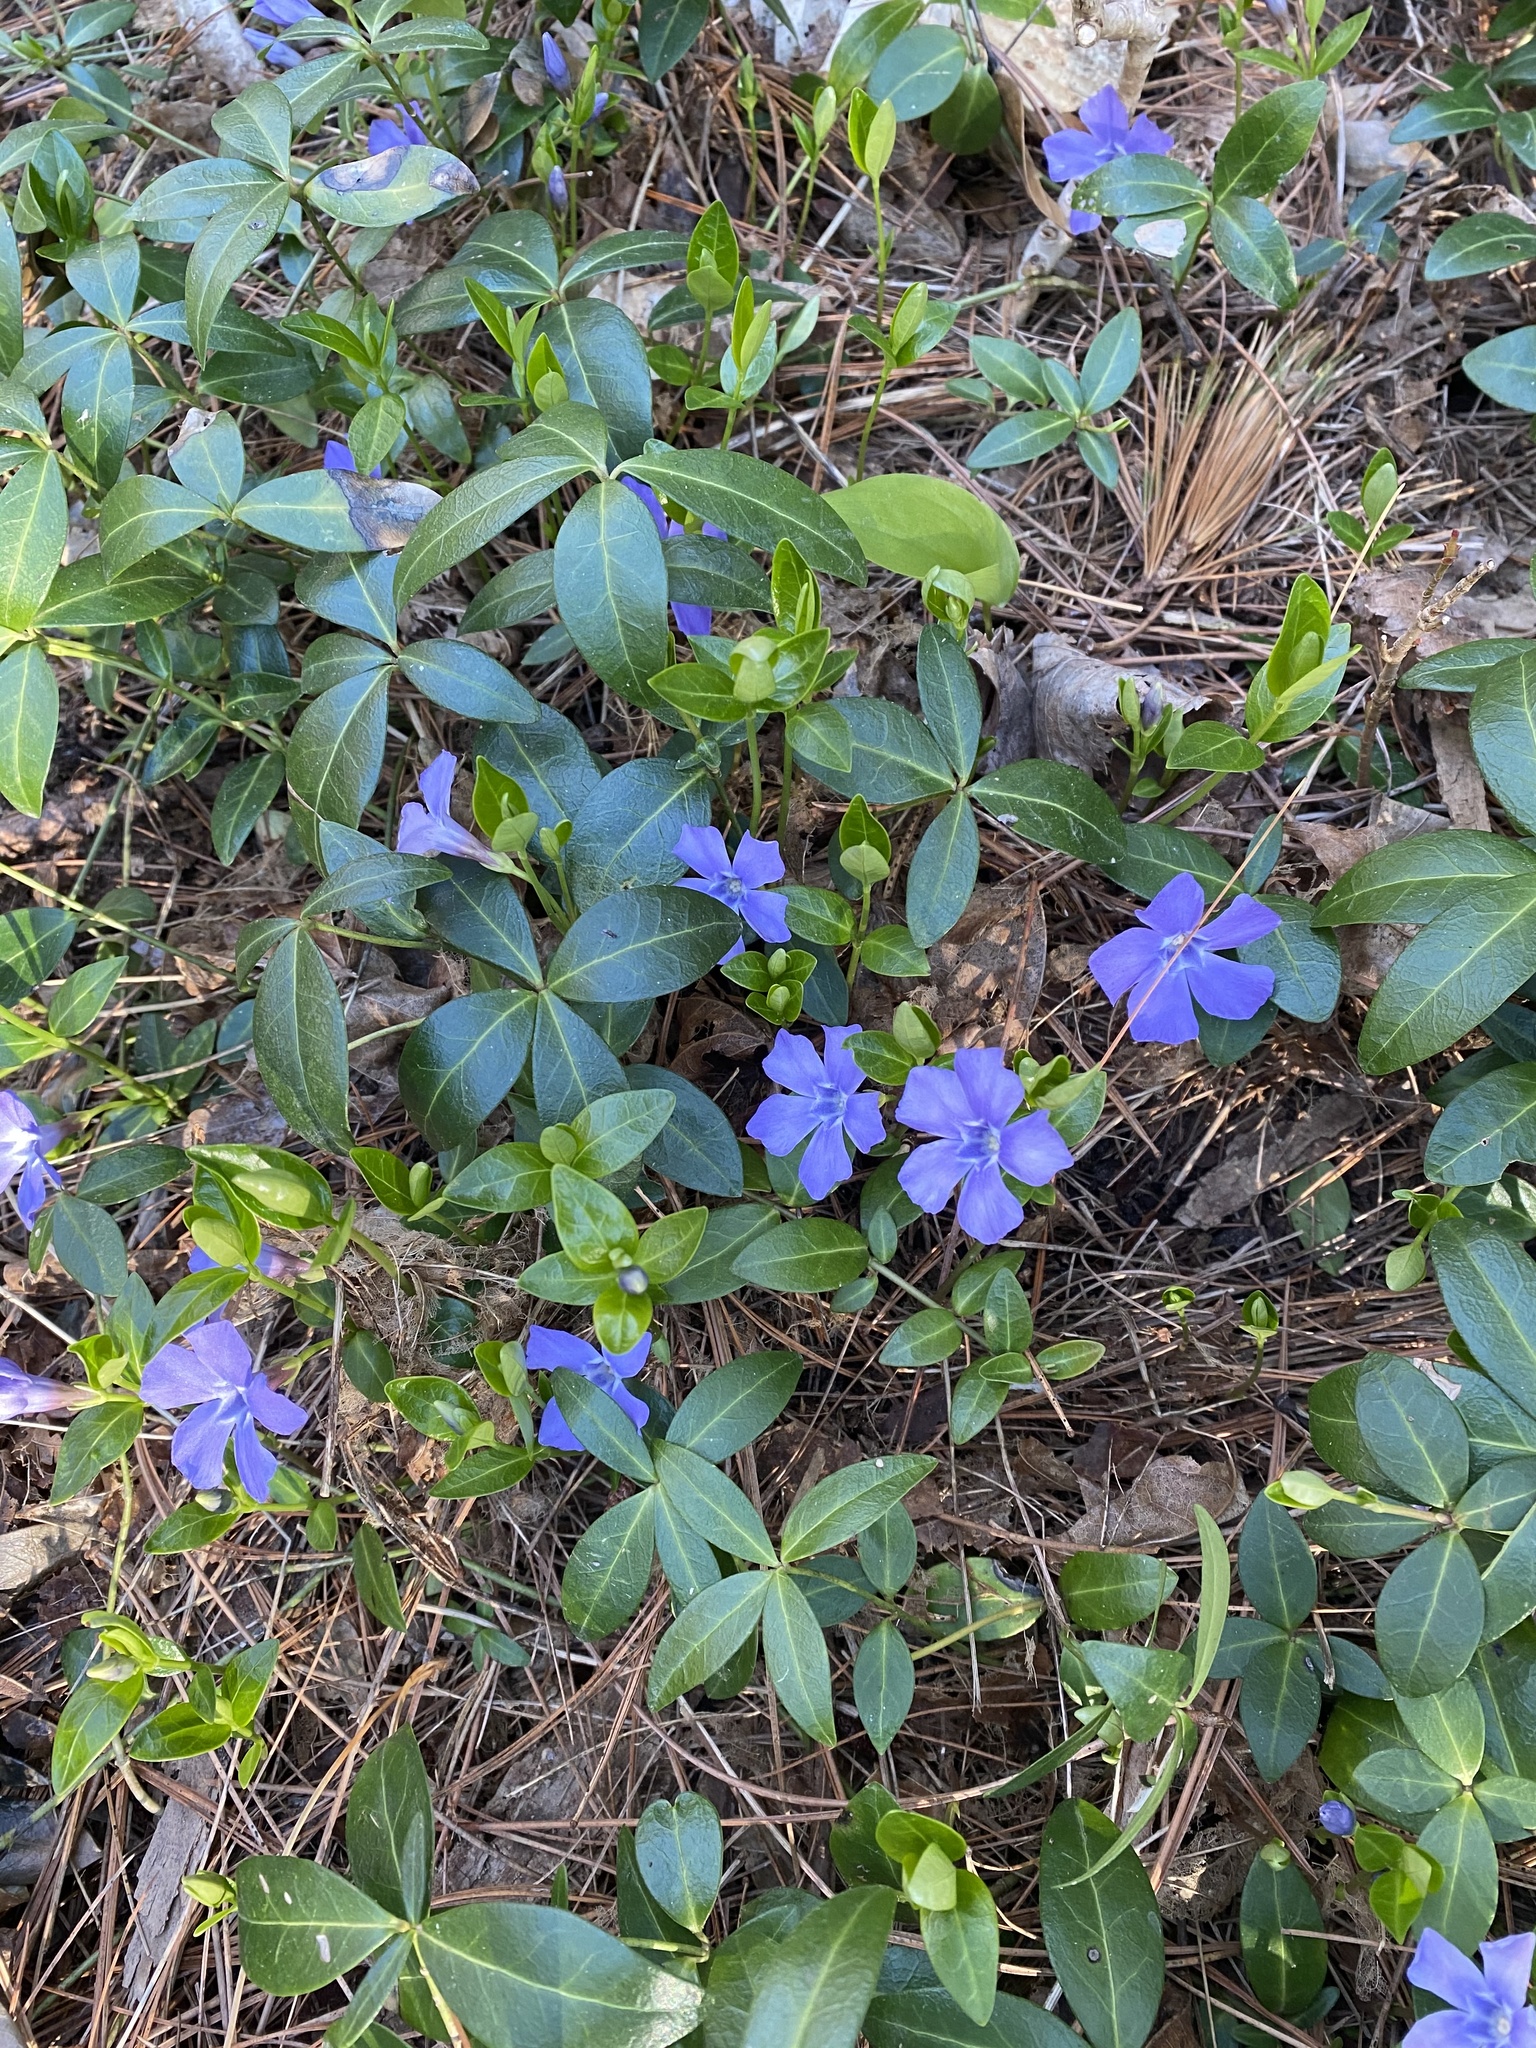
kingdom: Plantae
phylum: Tracheophyta
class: Magnoliopsida
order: Gentianales
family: Apocynaceae
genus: Vinca
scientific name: Vinca minor
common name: Lesser periwinkle
